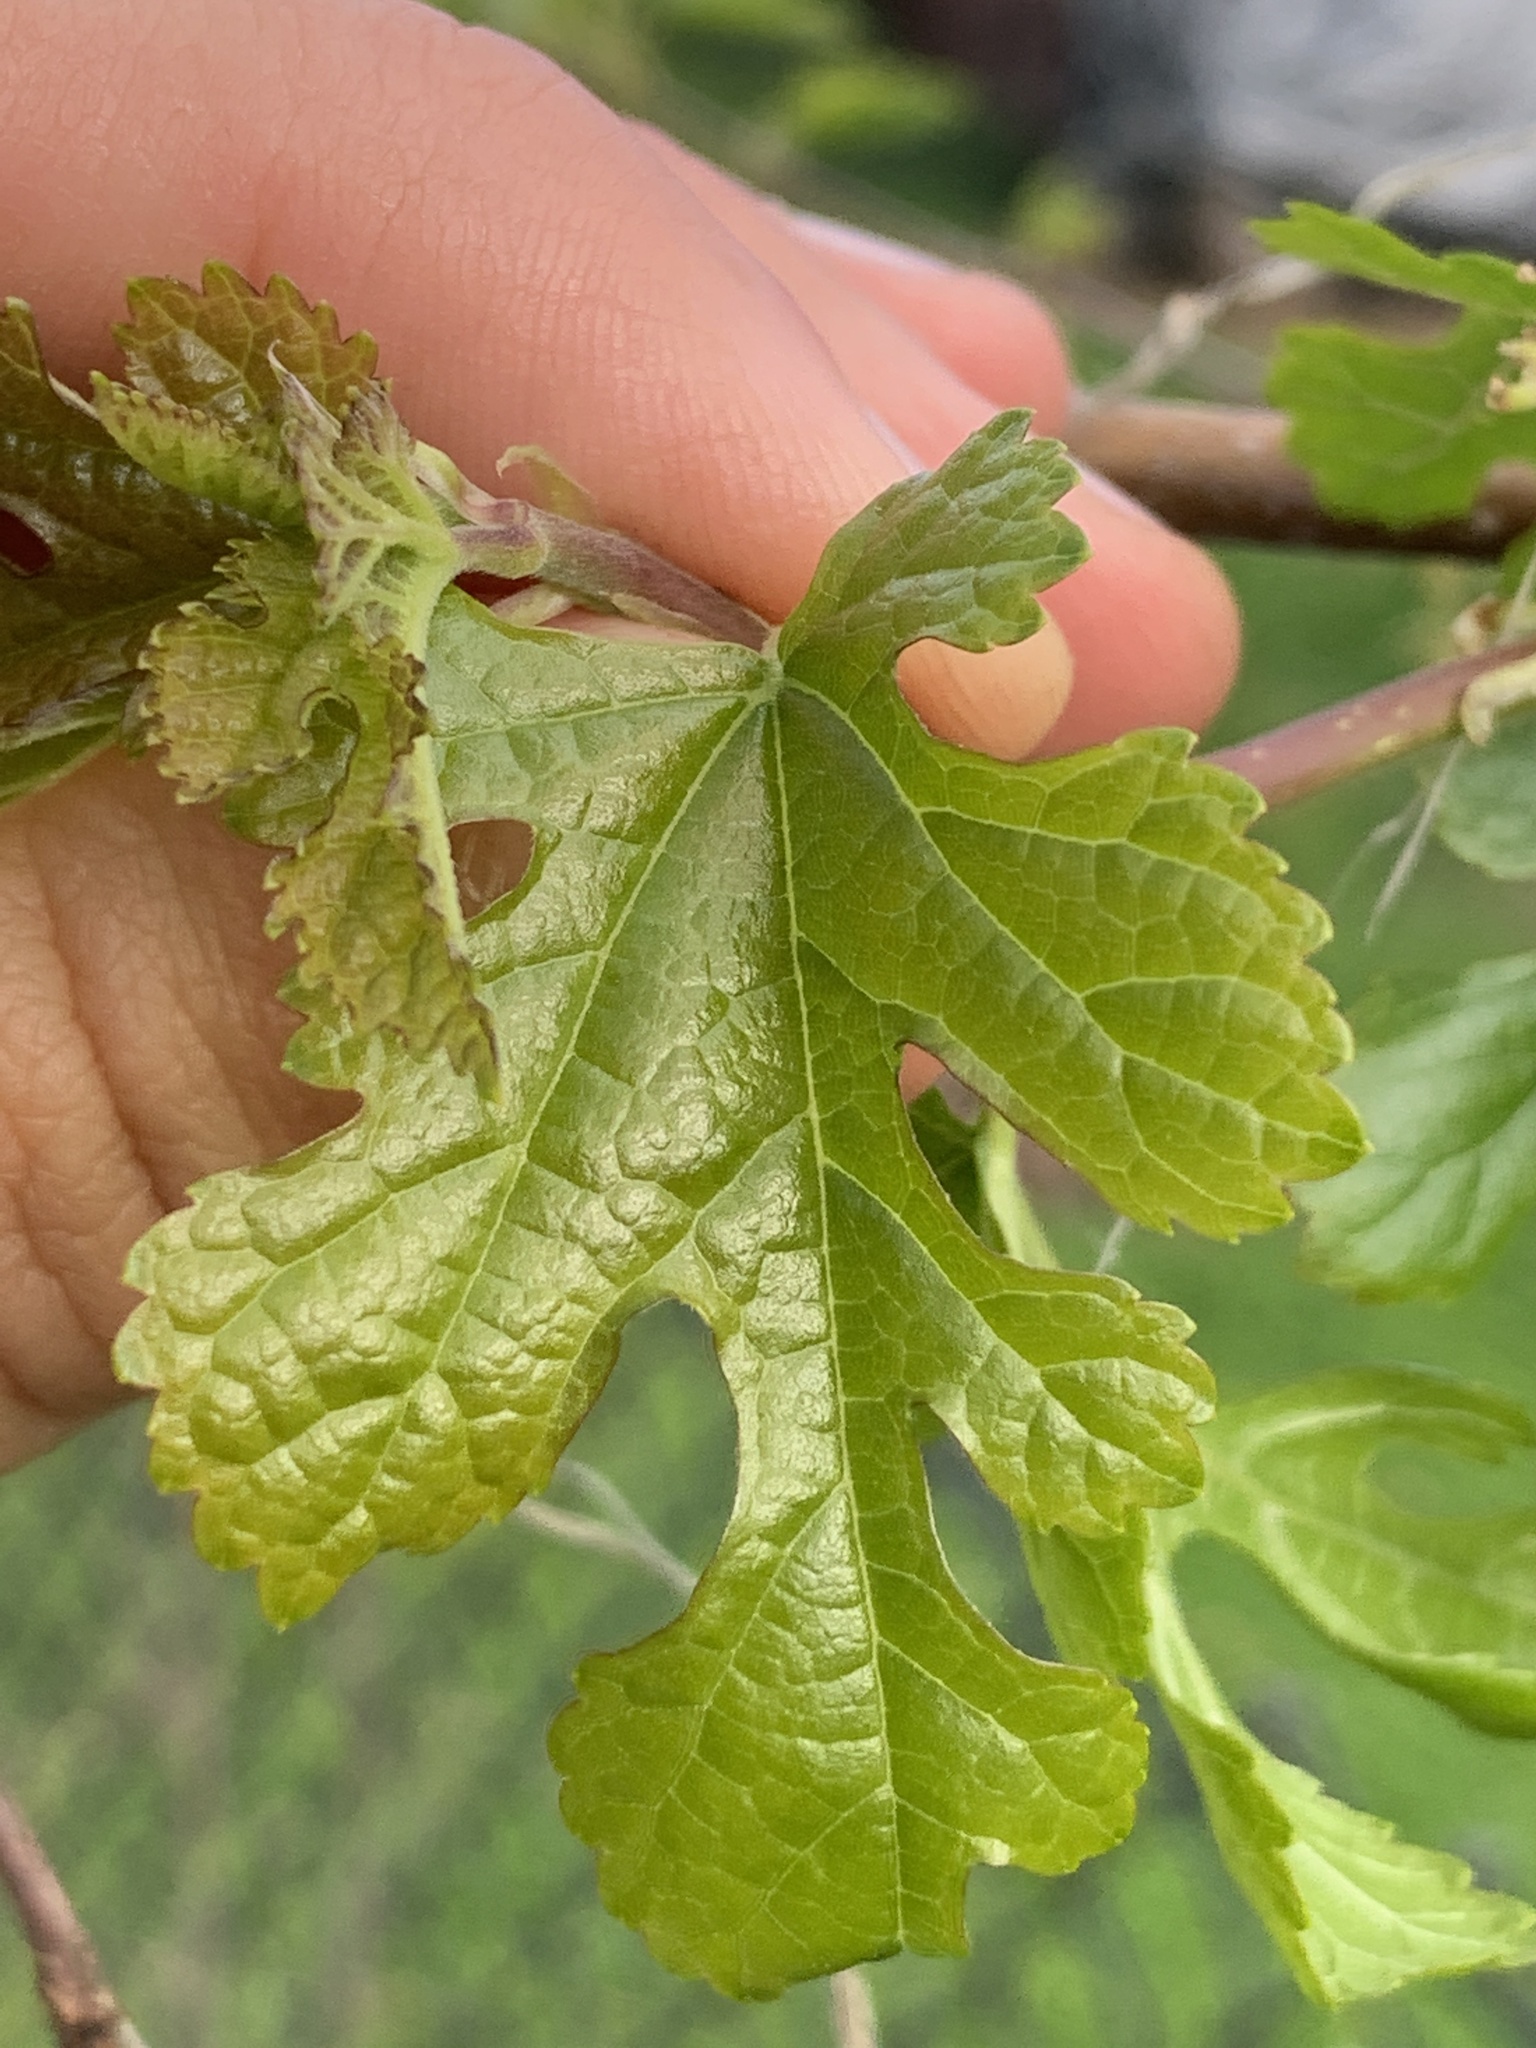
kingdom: Plantae
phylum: Tracheophyta
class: Magnoliopsida
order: Rosales
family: Moraceae
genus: Morus
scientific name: Morus alba
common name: White mulberry
